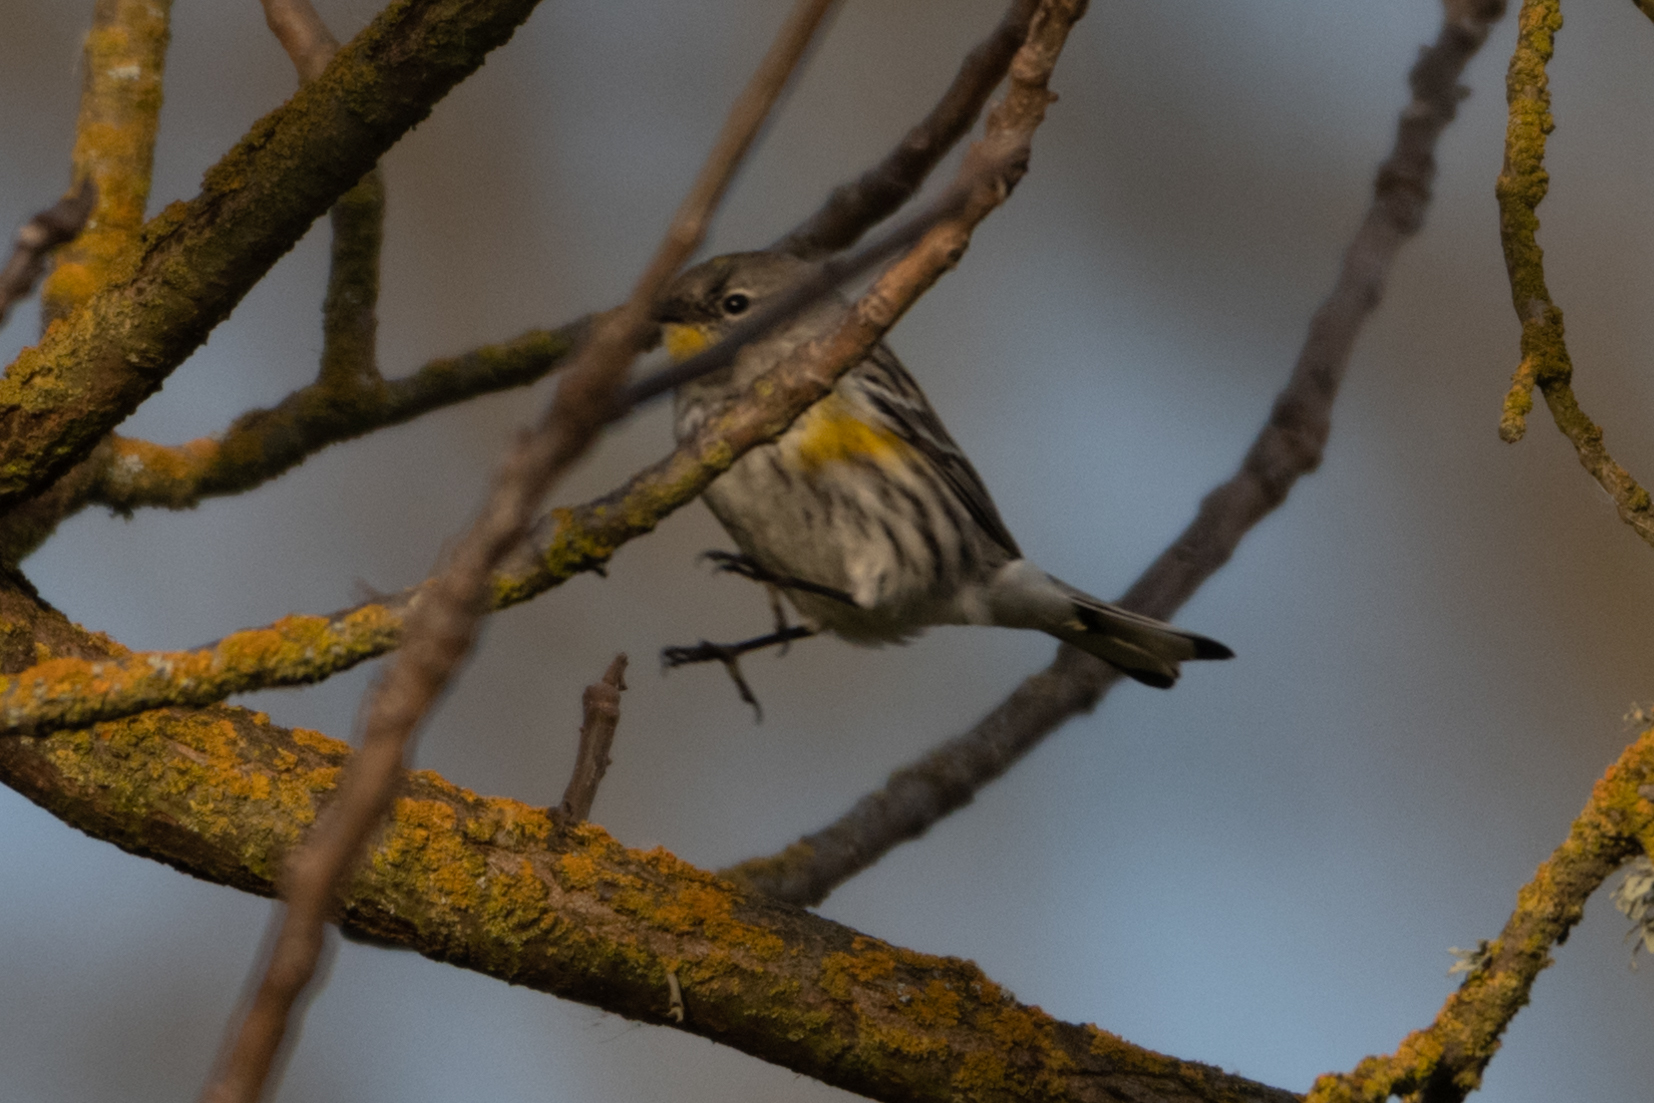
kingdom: Animalia
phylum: Chordata
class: Aves
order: Passeriformes
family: Parulidae
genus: Setophaga
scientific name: Setophaga coronata
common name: Myrtle warbler
